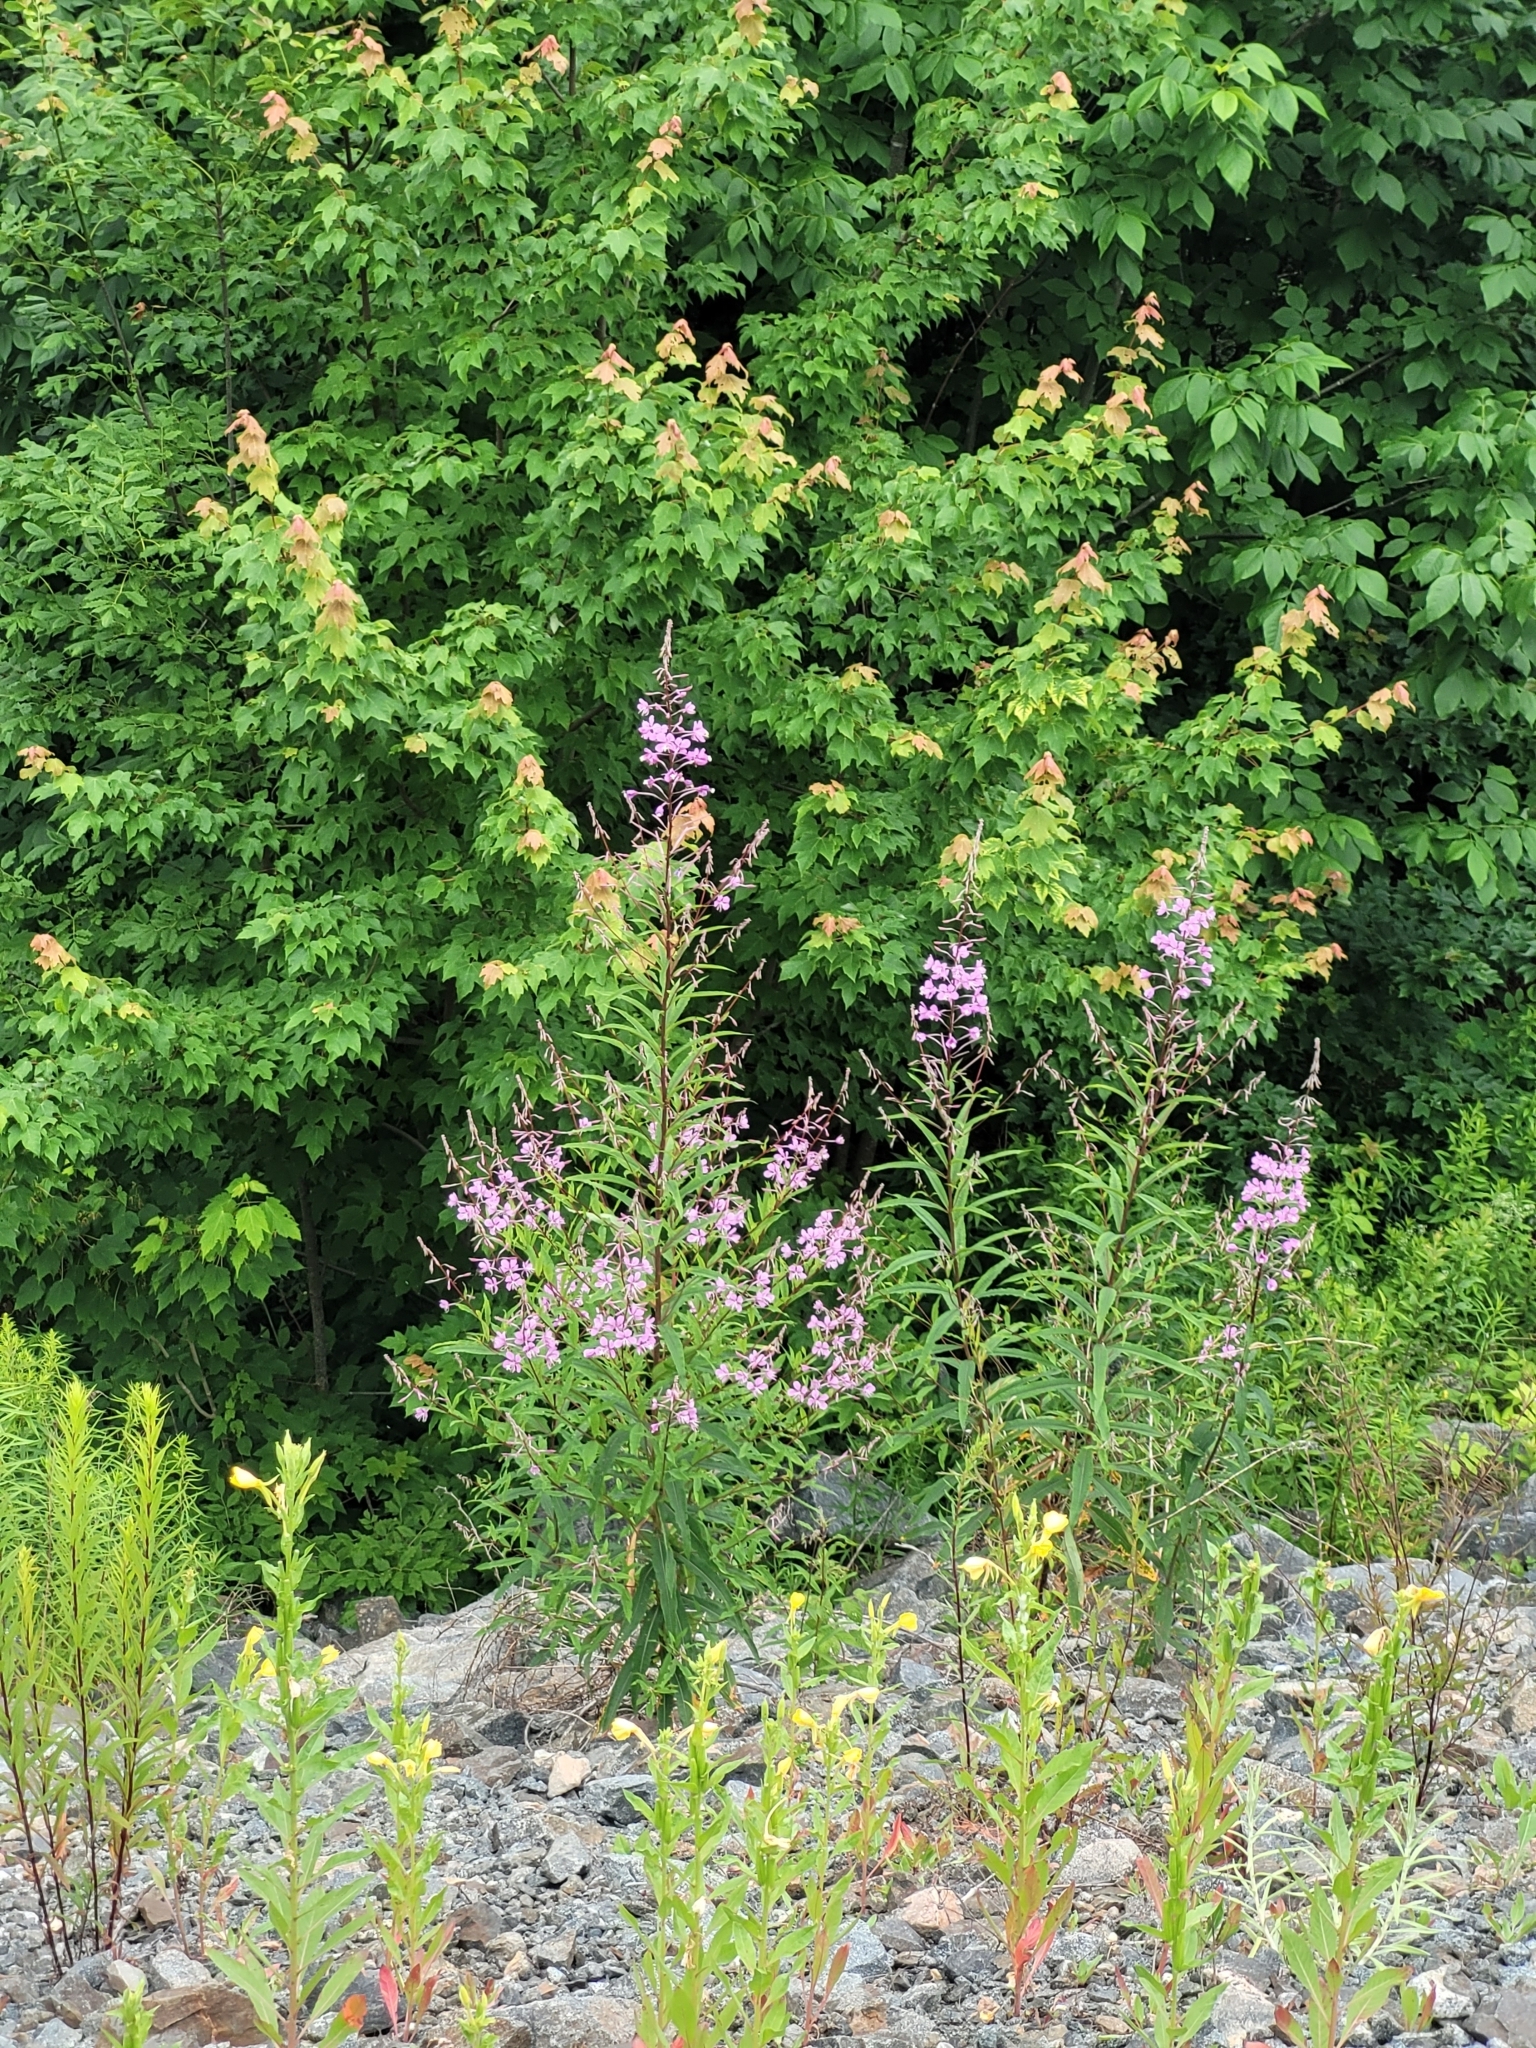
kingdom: Plantae
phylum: Tracheophyta
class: Magnoliopsida
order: Myrtales
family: Onagraceae
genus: Chamaenerion
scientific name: Chamaenerion angustifolium
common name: Fireweed
